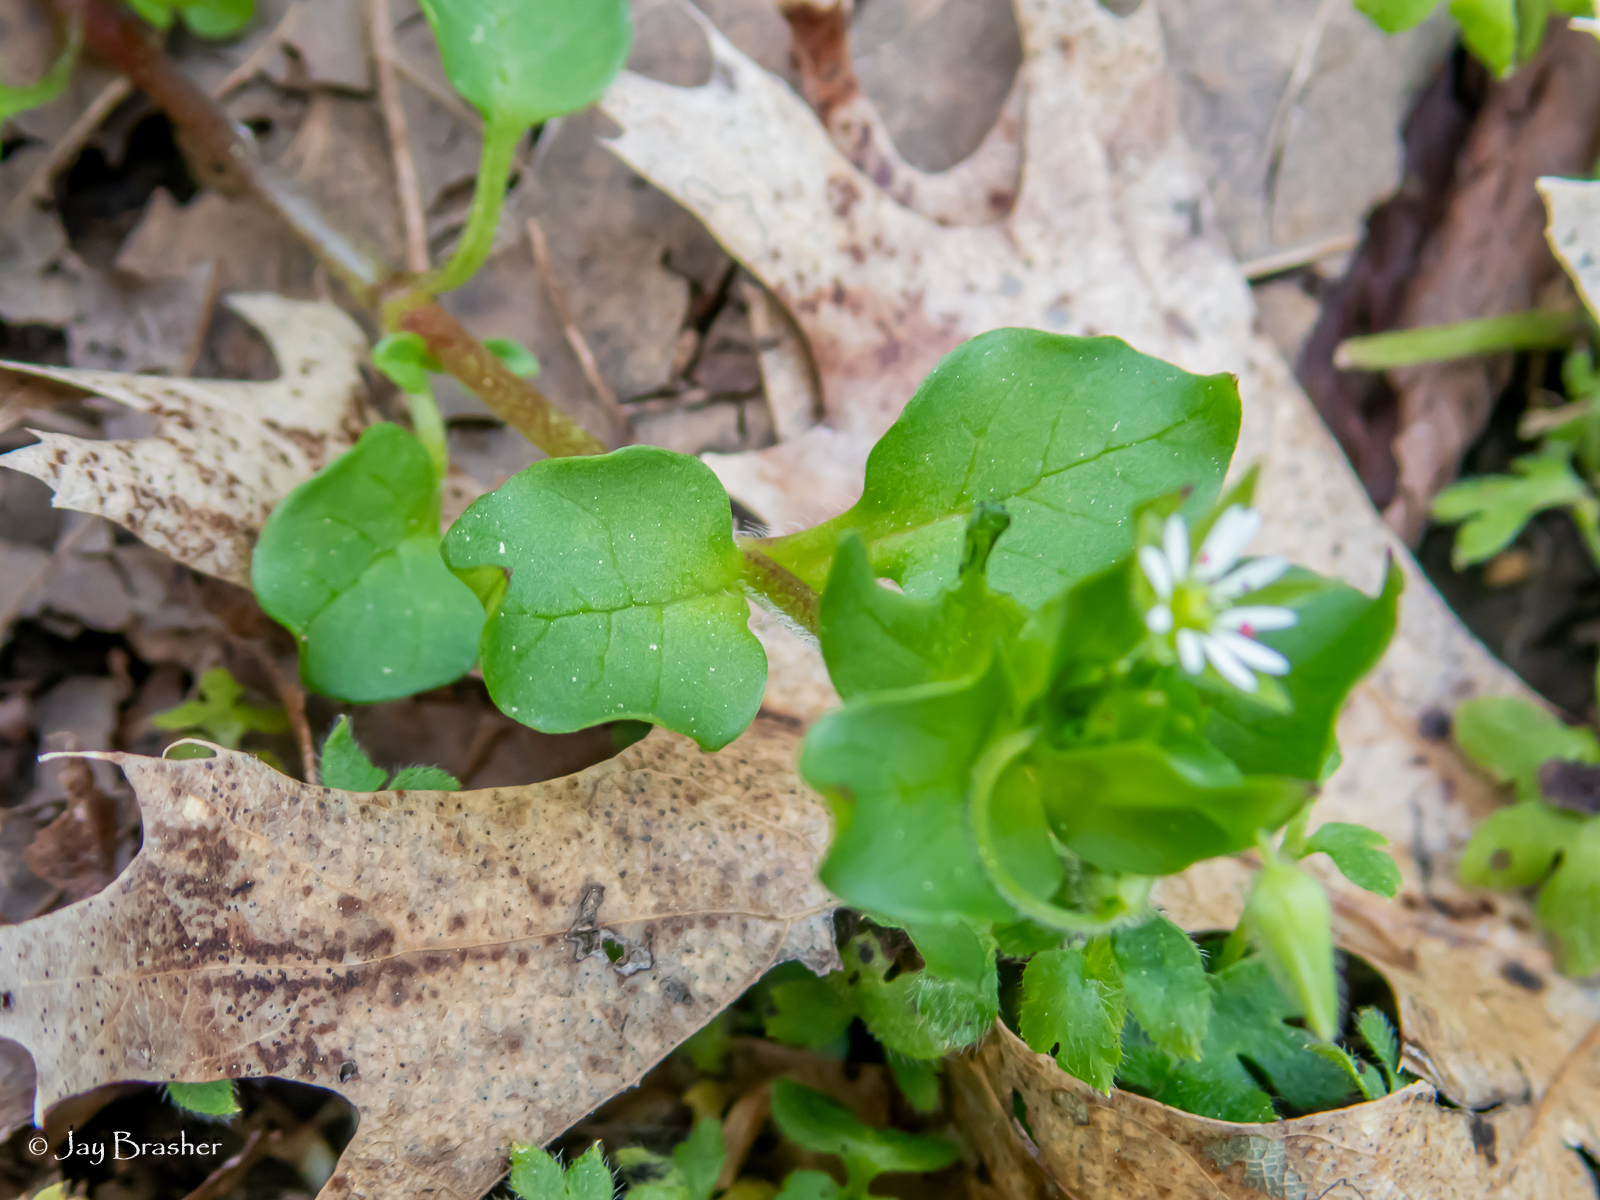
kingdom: Plantae
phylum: Tracheophyta
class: Magnoliopsida
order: Caryophyllales
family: Caryophyllaceae
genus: Stellaria
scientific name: Stellaria media
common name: Common chickweed
